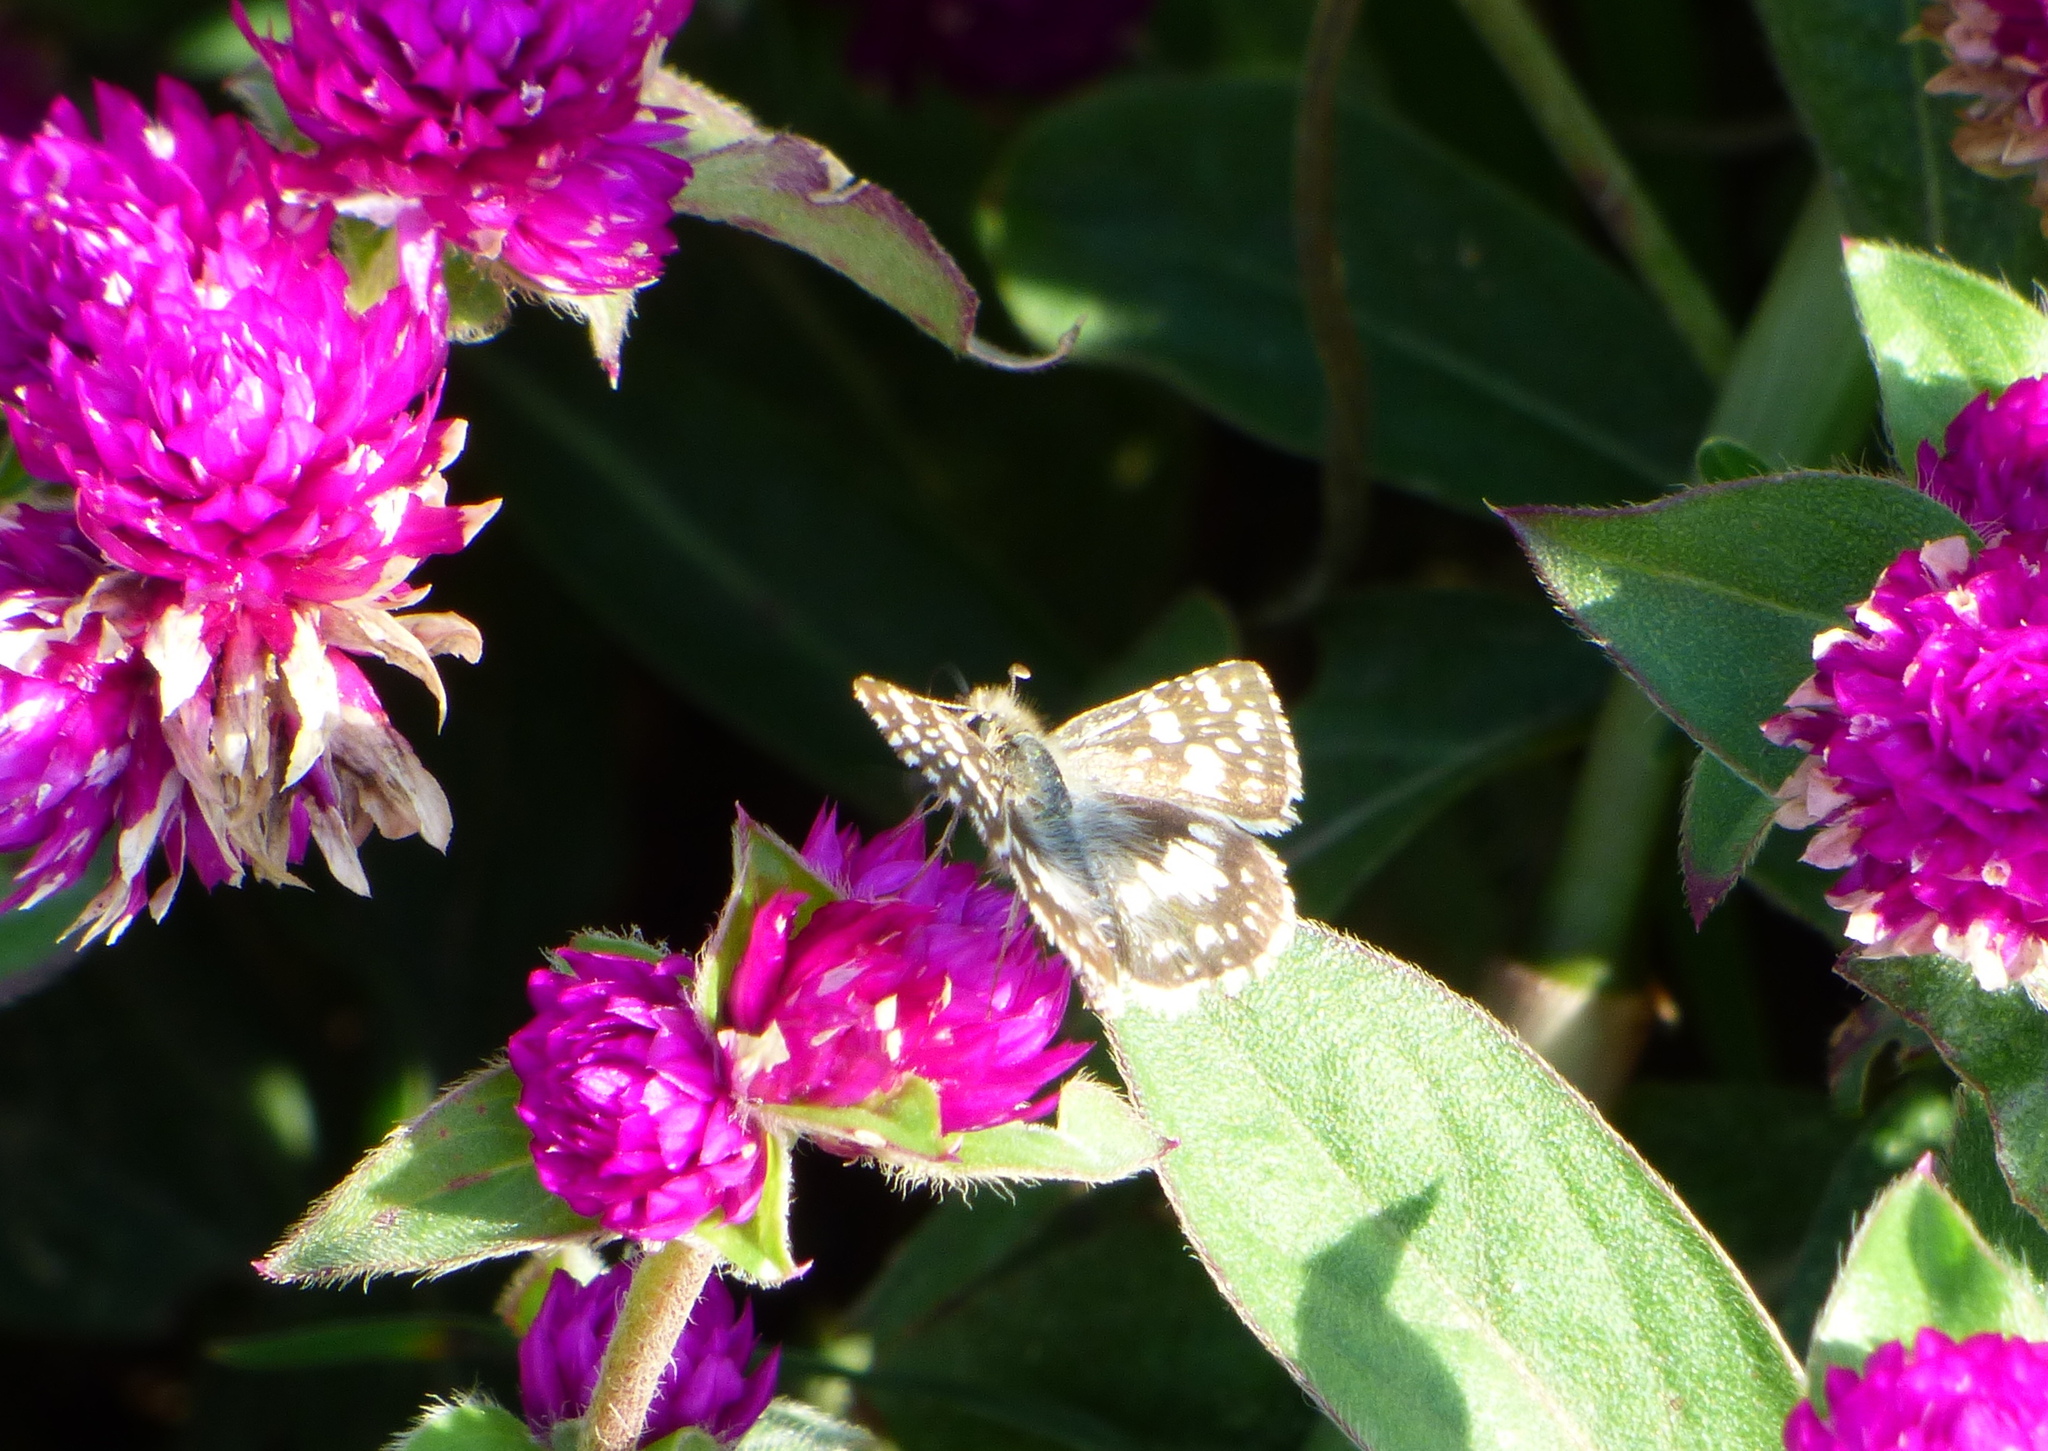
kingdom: Animalia
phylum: Arthropoda
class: Insecta
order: Lepidoptera
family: Hesperiidae
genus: Burnsius
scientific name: Burnsius orcynoides
